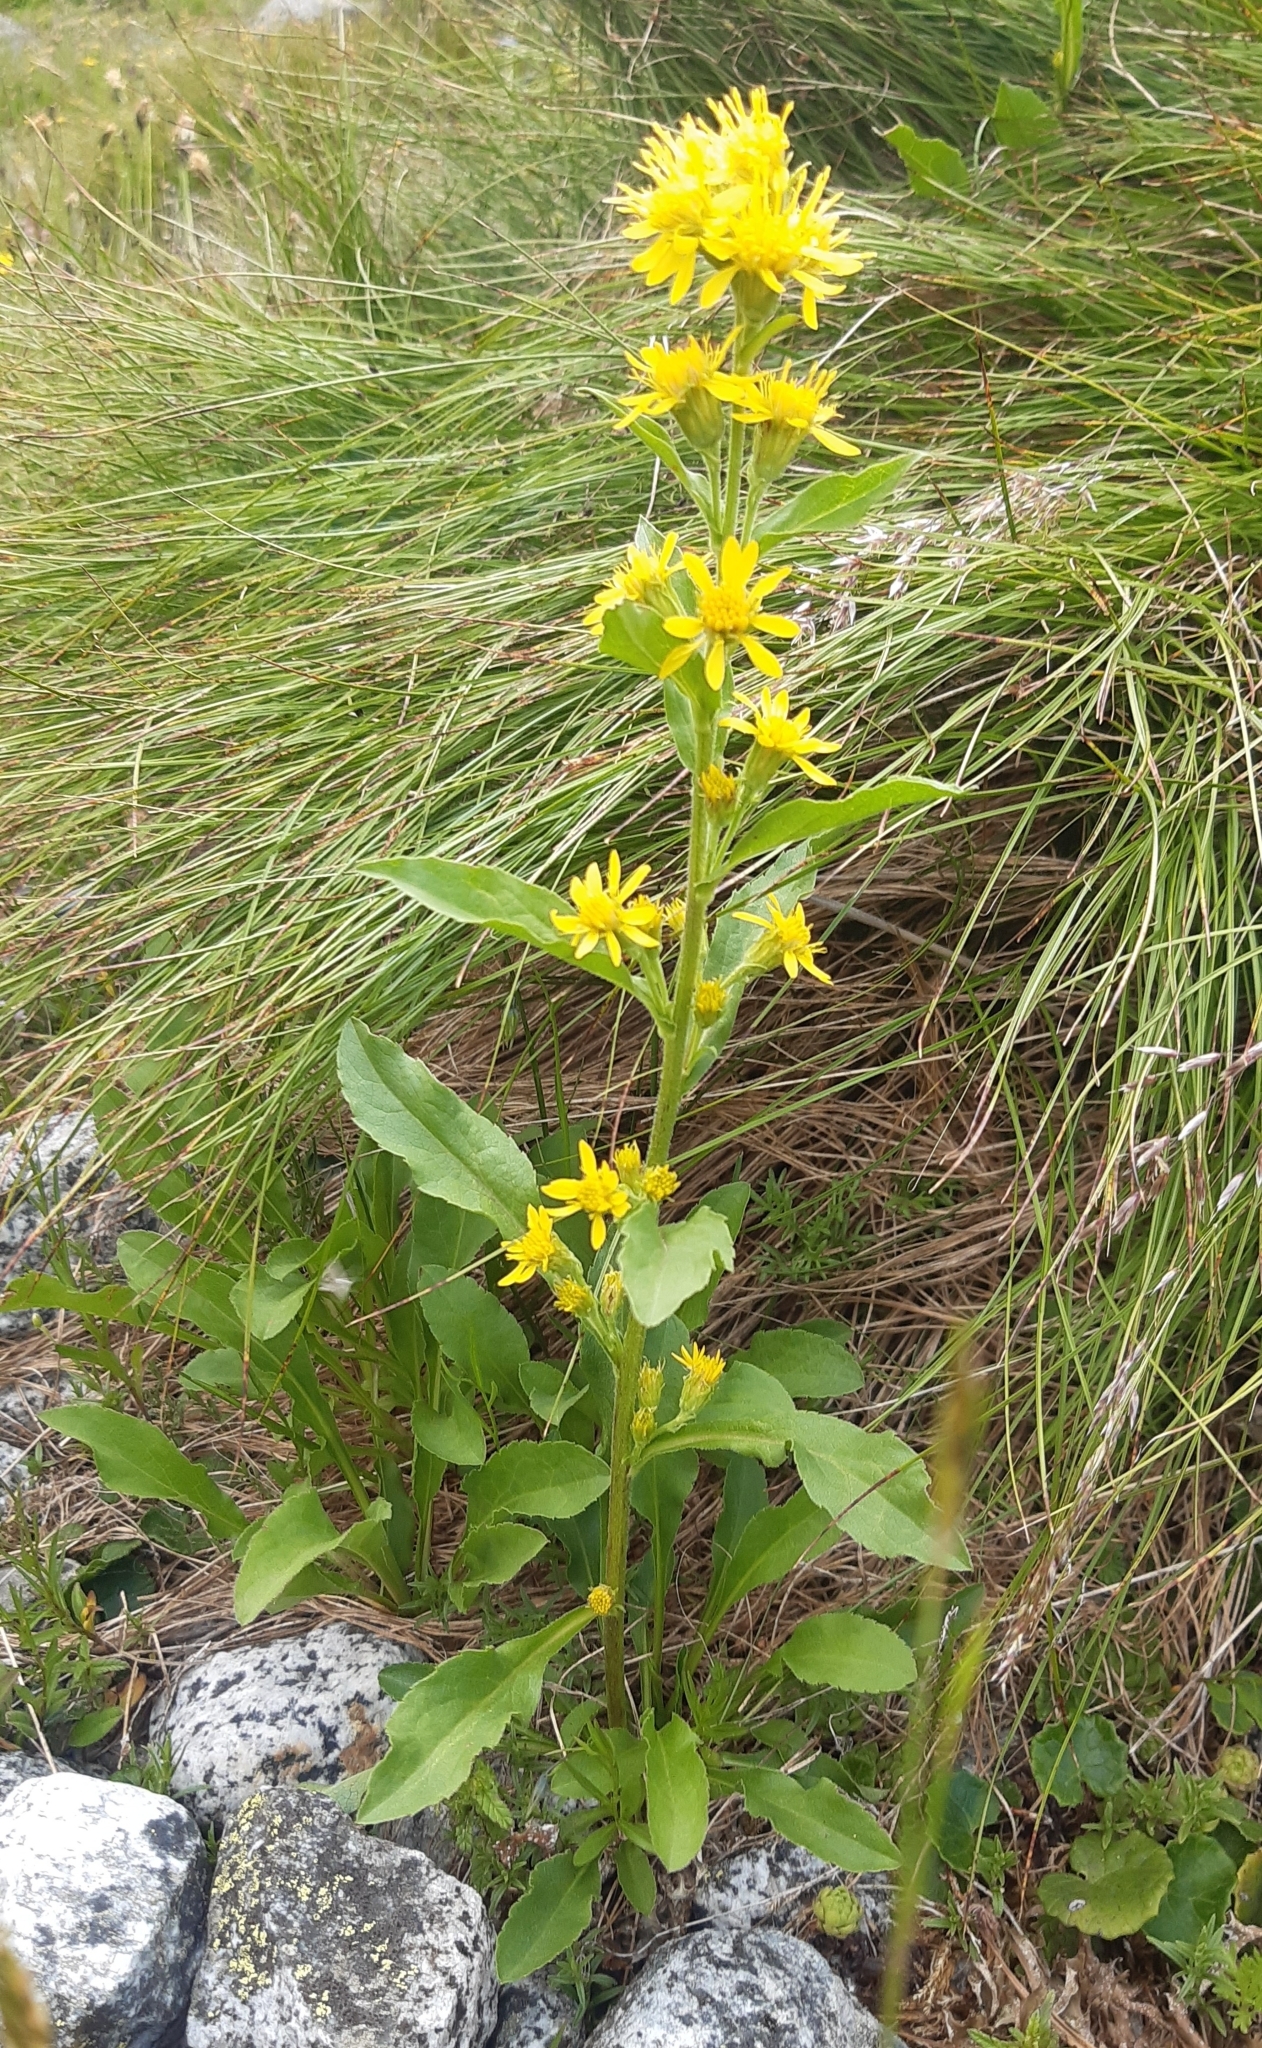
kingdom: Plantae
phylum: Tracheophyta
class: Magnoliopsida
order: Asterales
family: Asteraceae
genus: Solidago
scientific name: Solidago virgaurea
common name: Goldenrod
